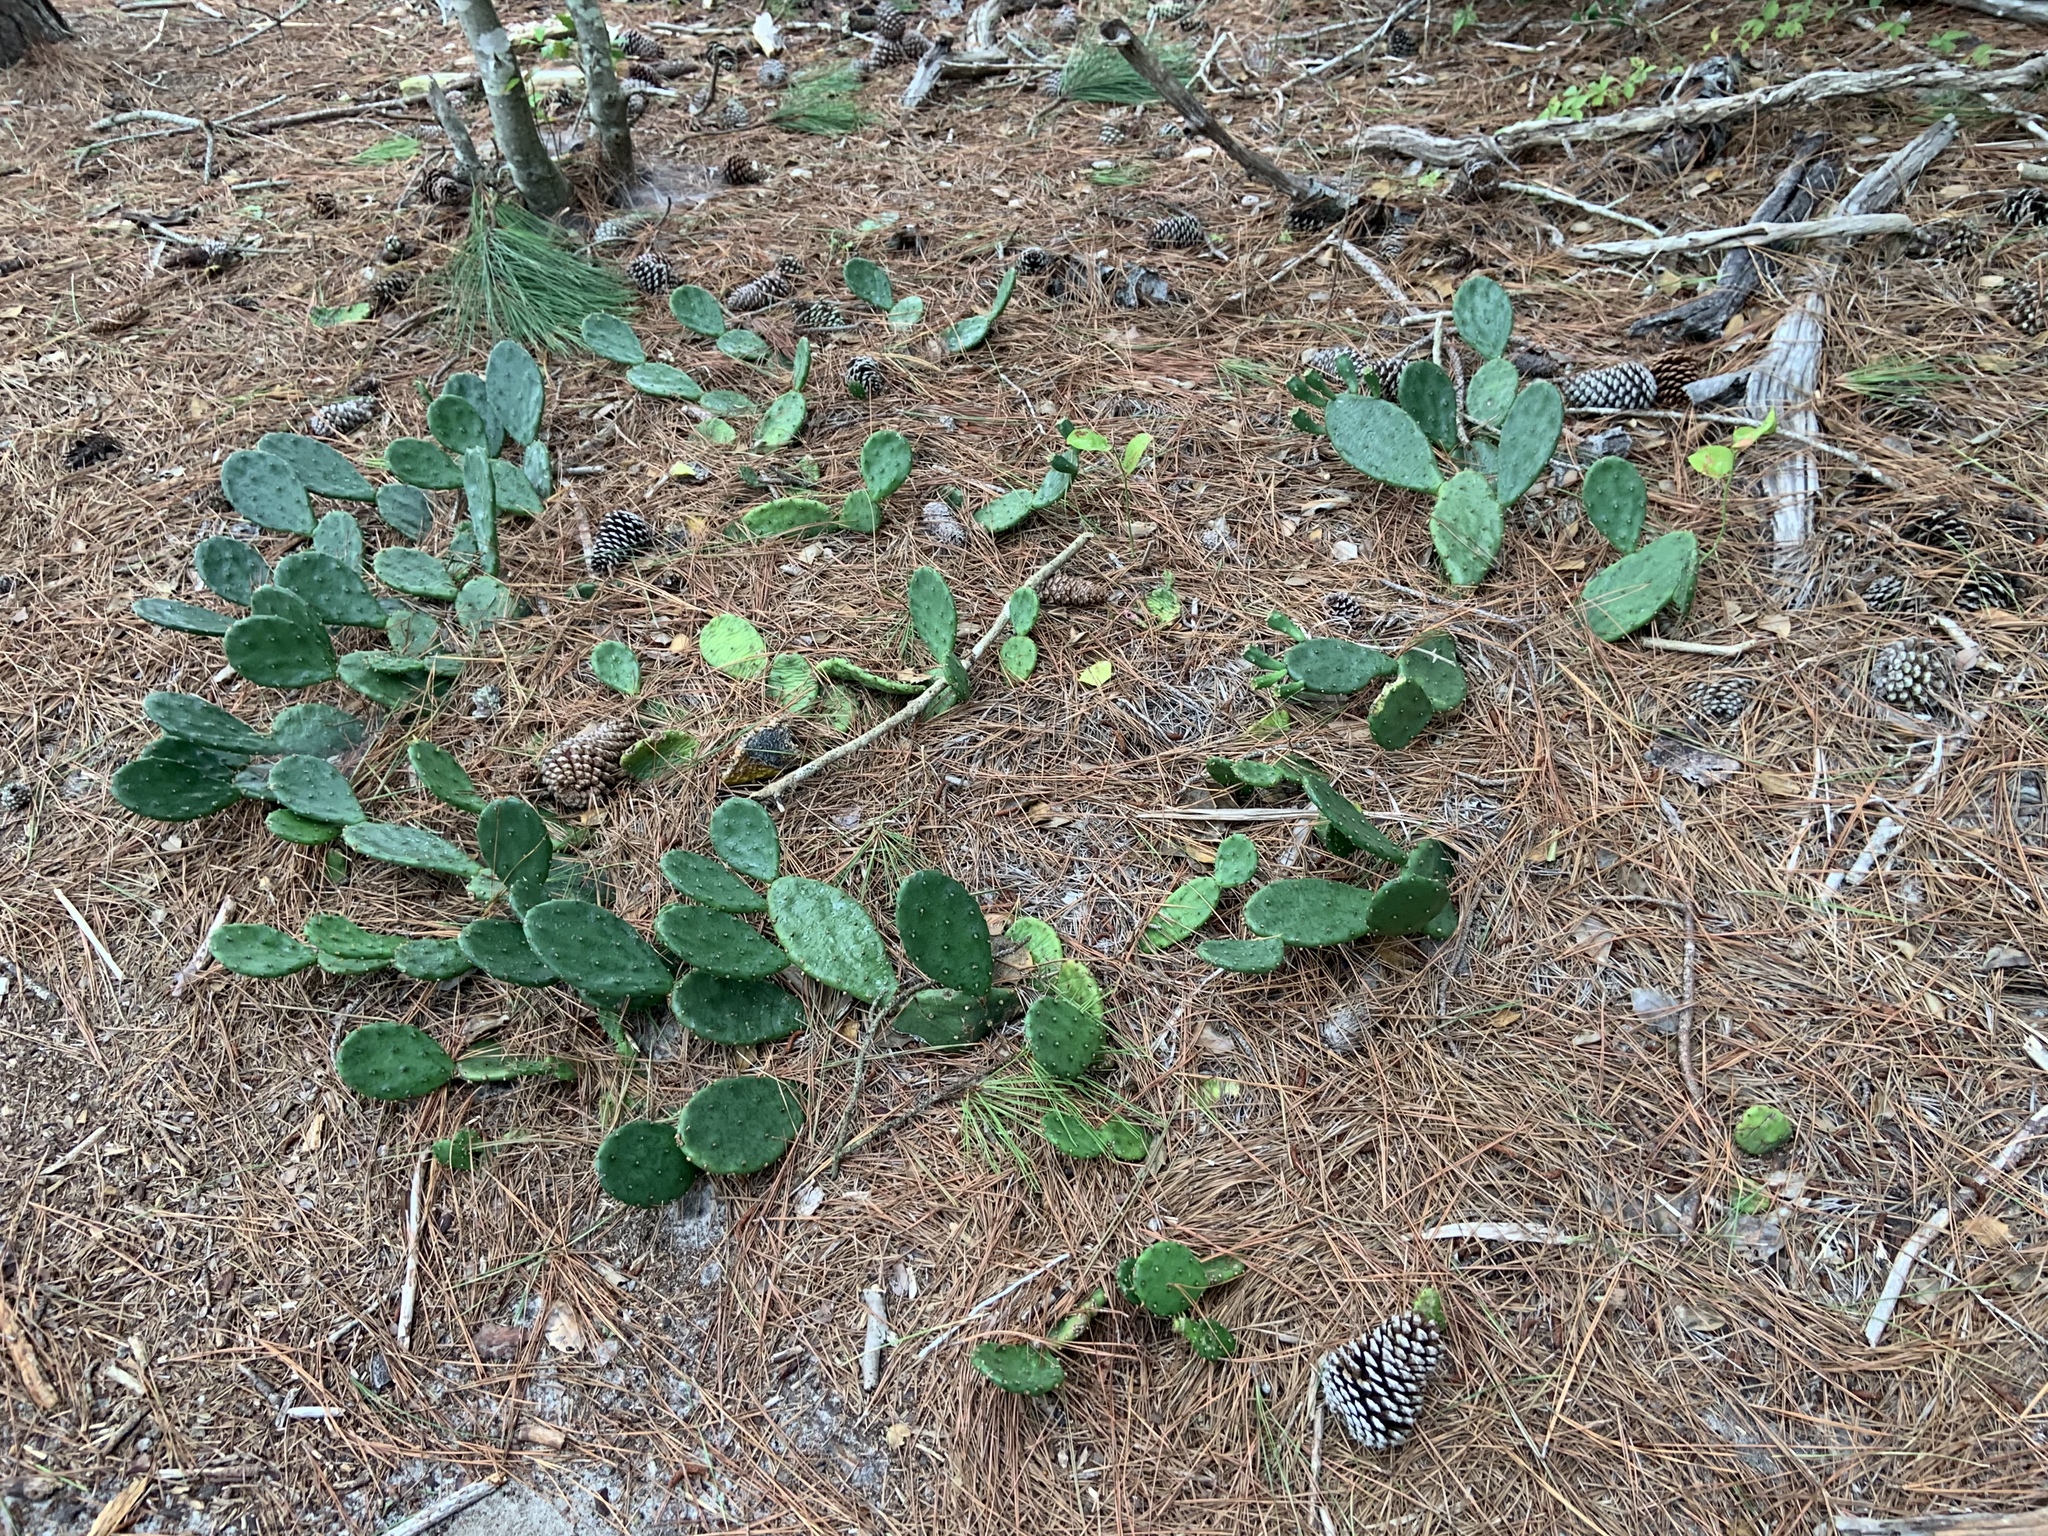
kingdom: Plantae
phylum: Tracheophyta
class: Magnoliopsida
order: Caryophyllales
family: Cactaceae
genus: Opuntia
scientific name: Opuntia humifusa
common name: Eastern prickly-pear
